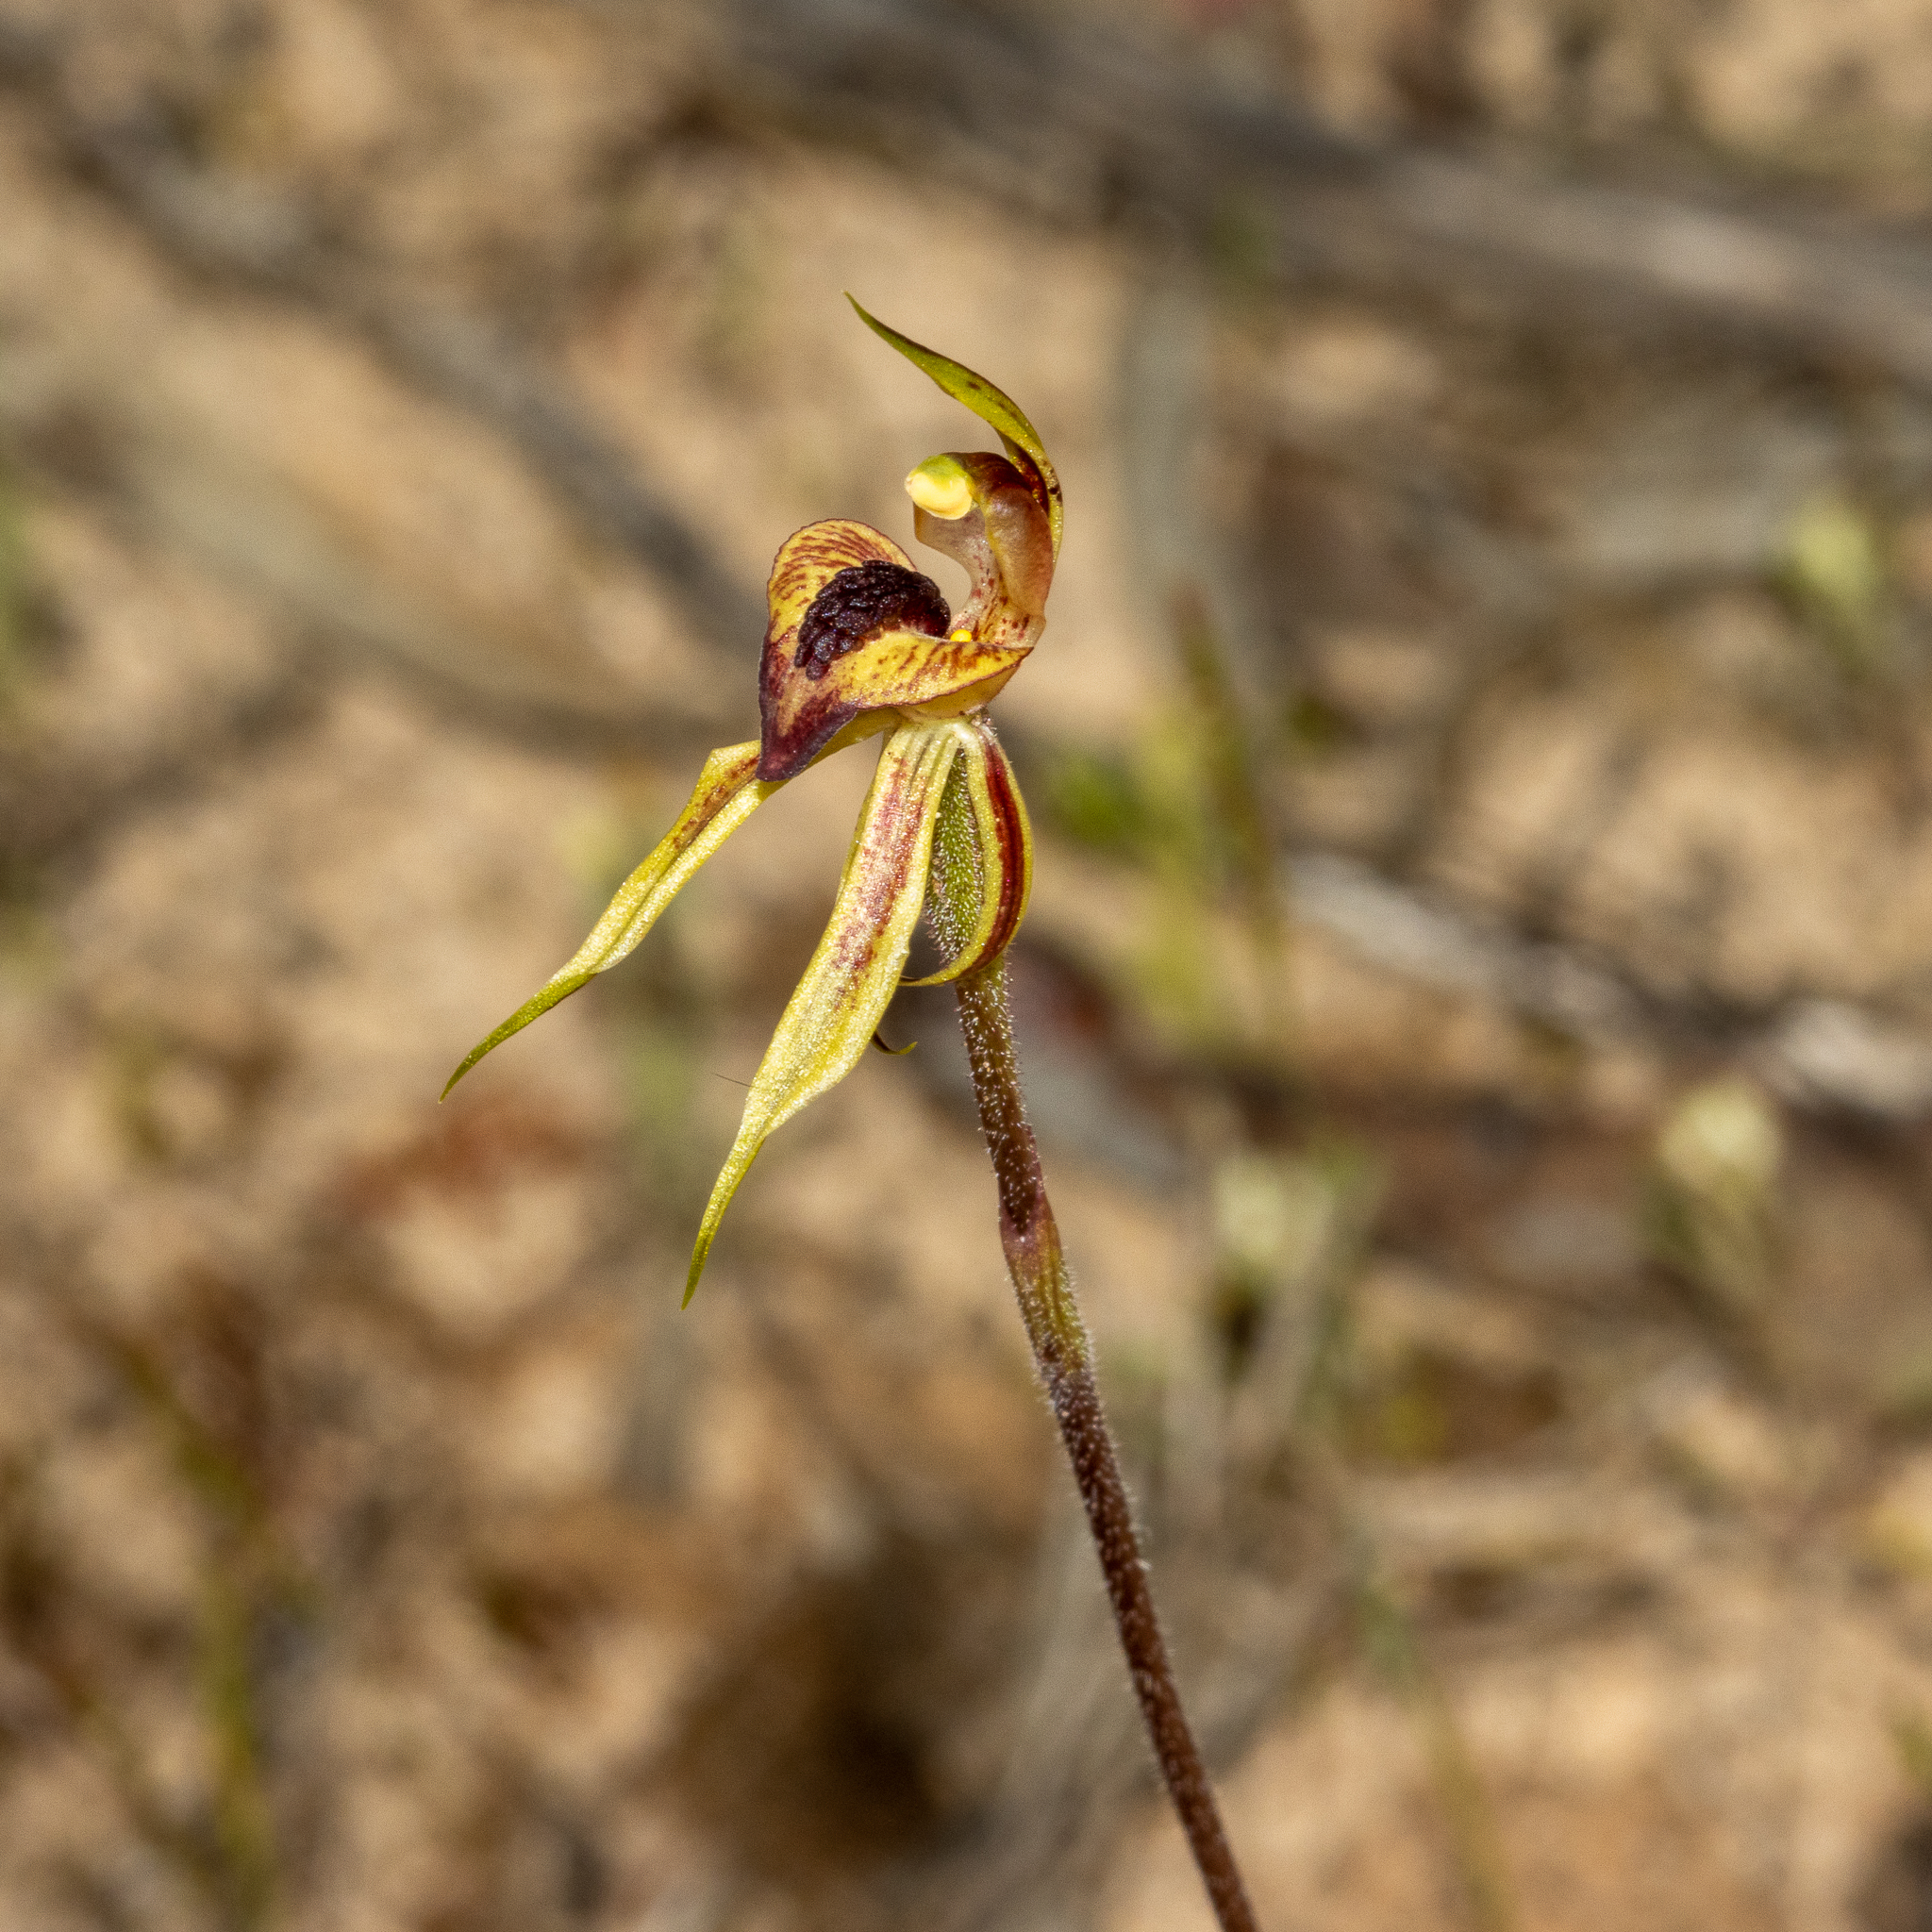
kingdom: Plantae
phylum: Tracheophyta
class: Liliopsida
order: Asparagales
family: Orchidaceae
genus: Caladenia
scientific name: Caladenia cardiochila
